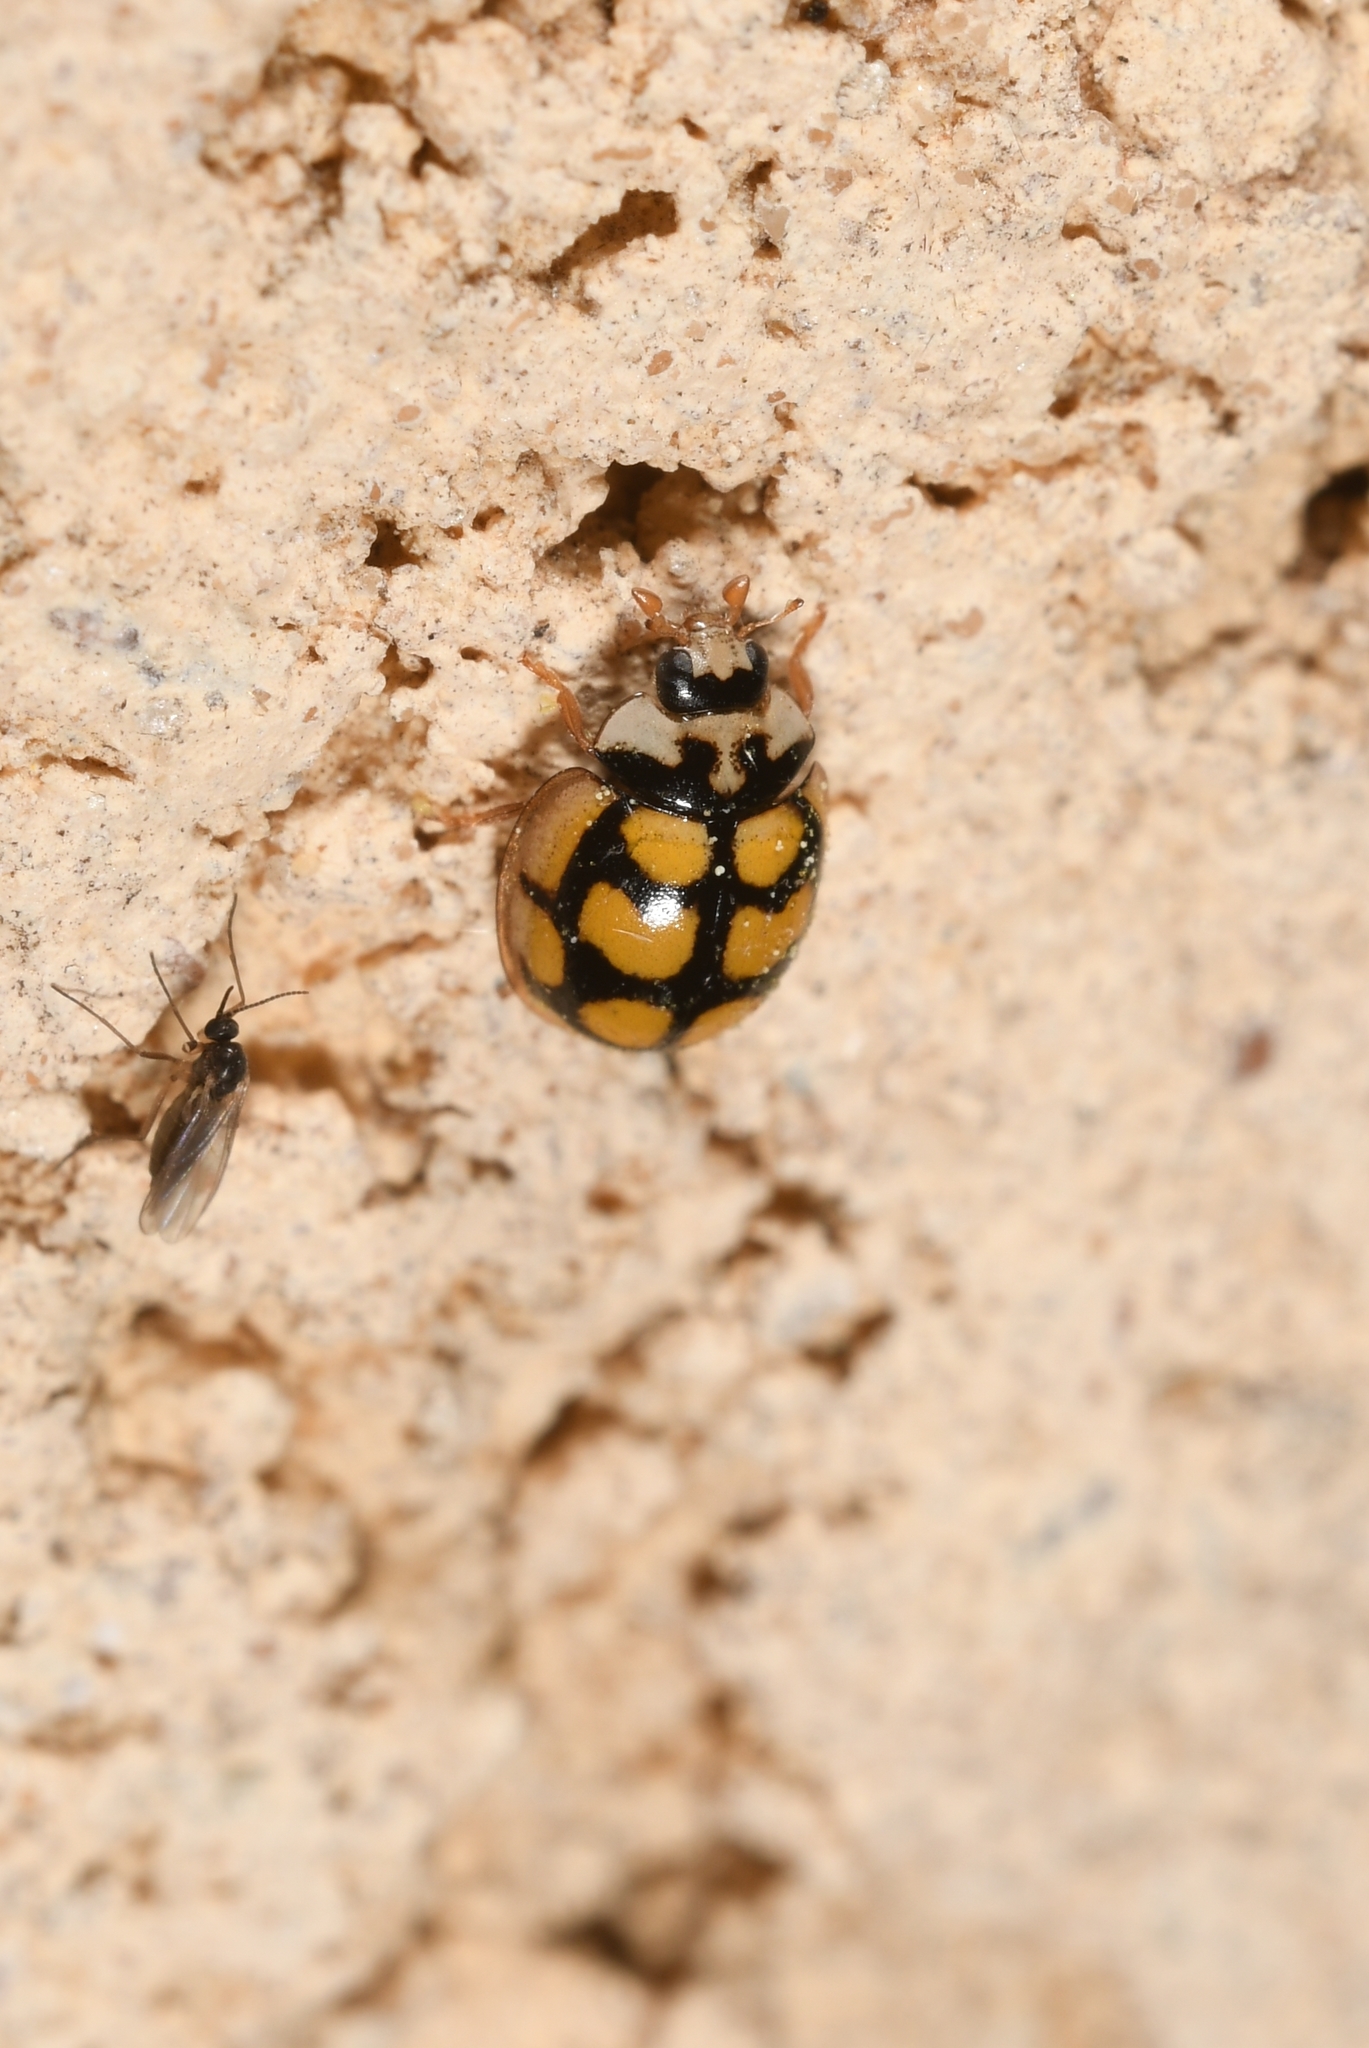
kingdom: Animalia
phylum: Arthropoda
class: Insecta
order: Coleoptera
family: Coccinellidae
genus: Oenopia
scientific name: Oenopia lyncea
